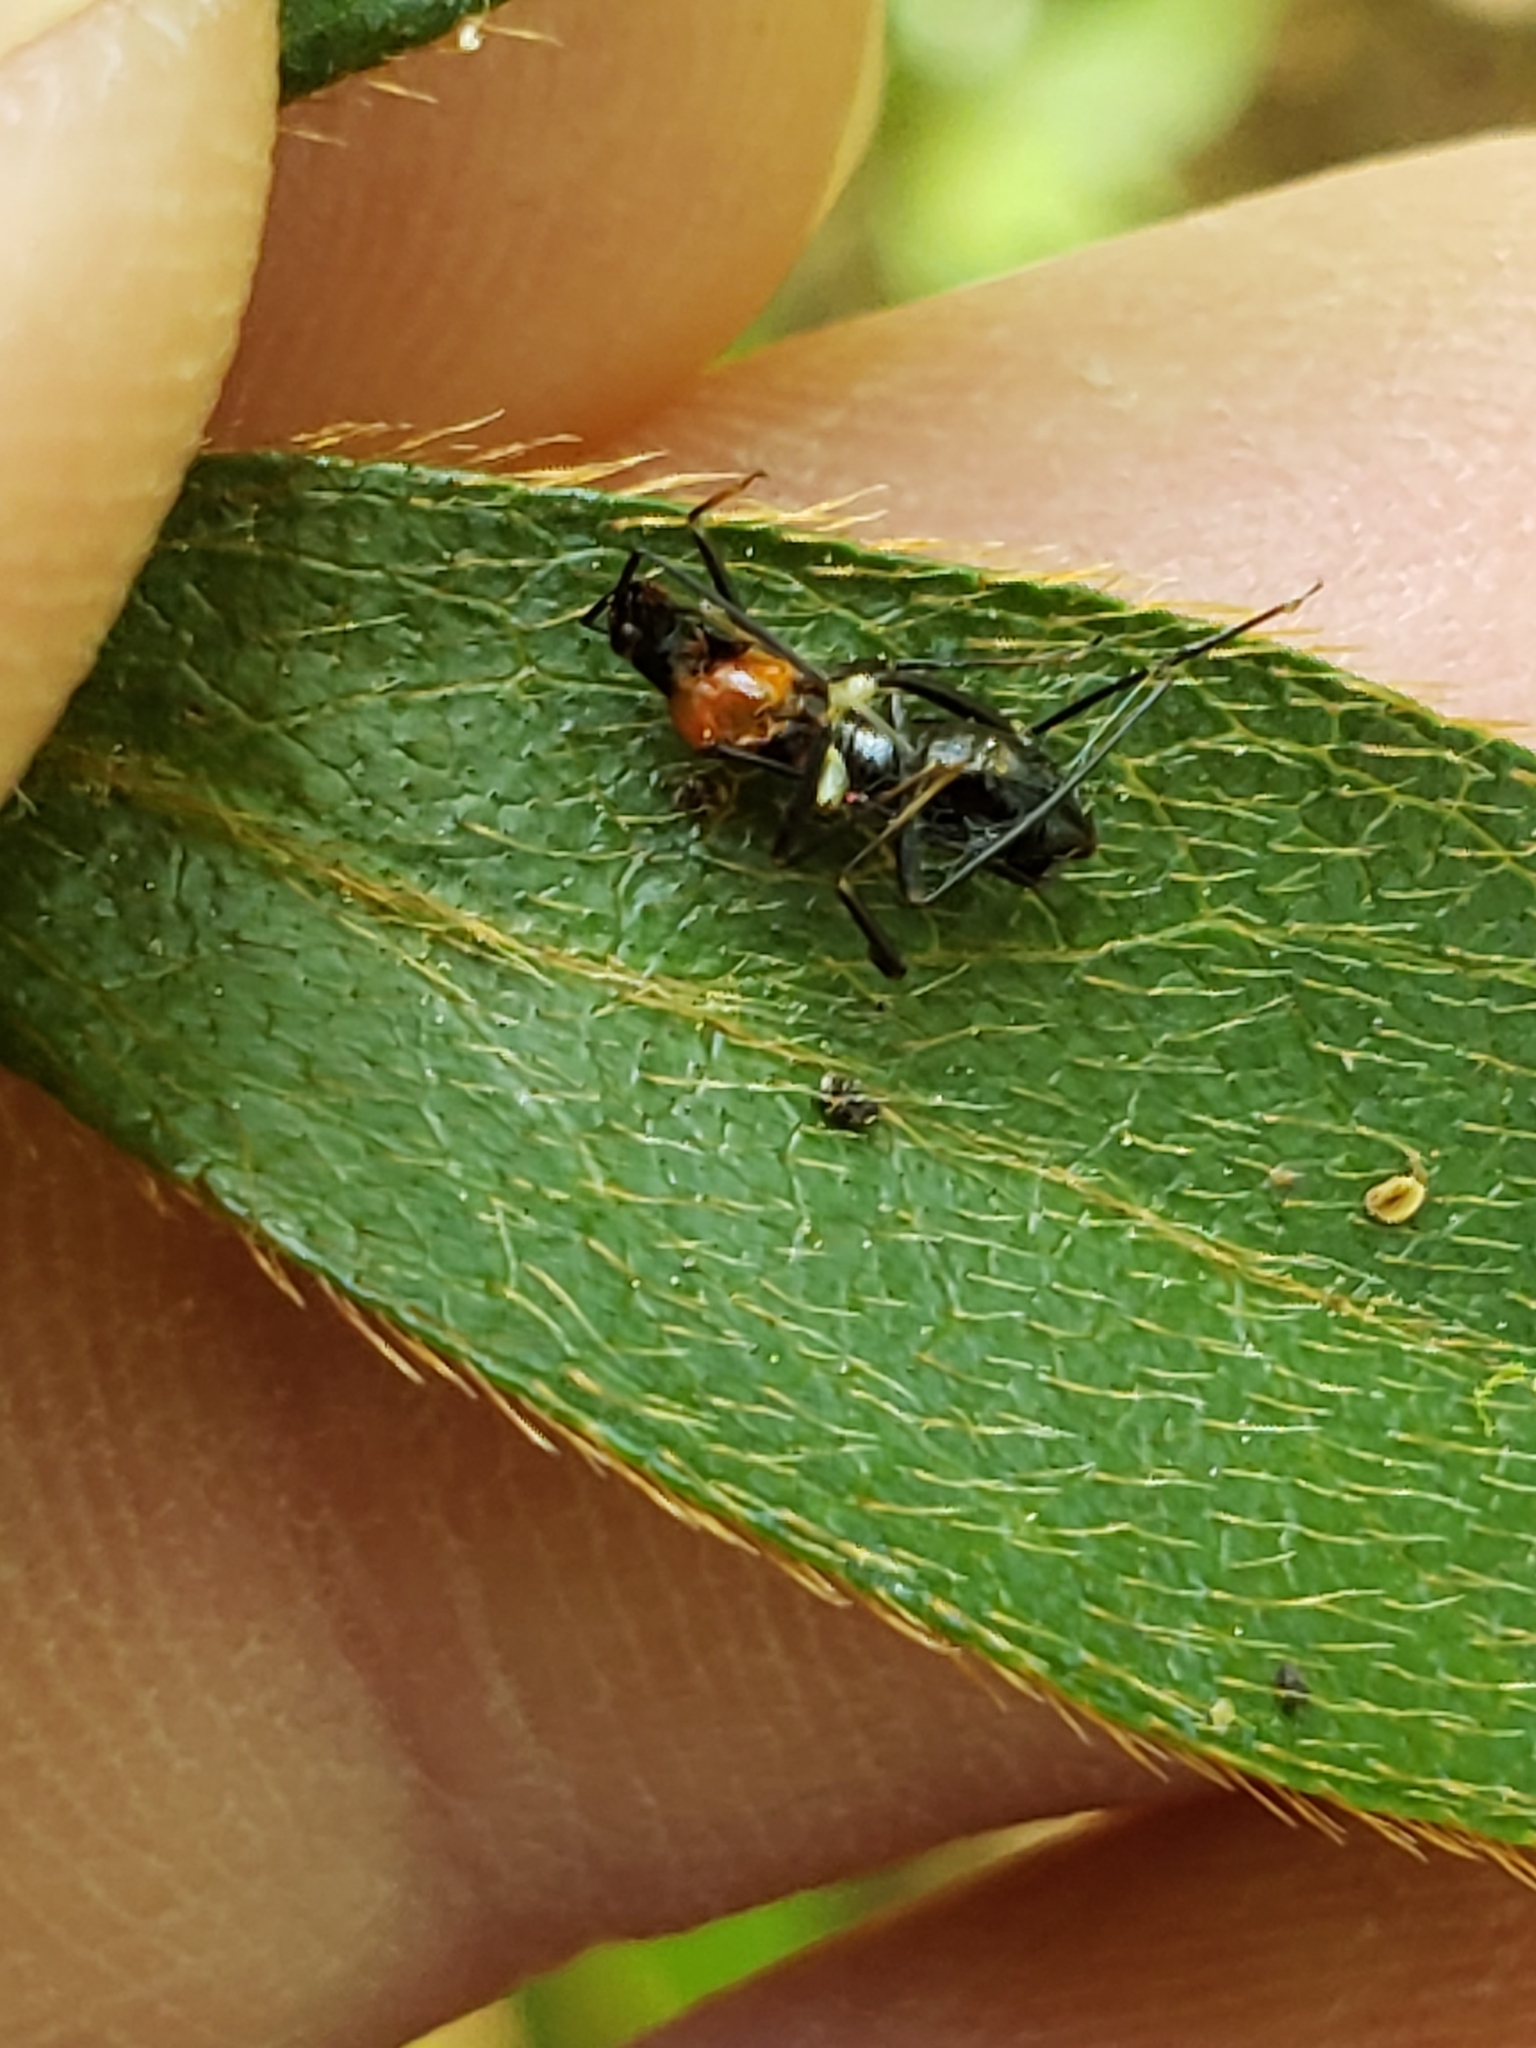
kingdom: Animalia
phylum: Arthropoda
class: Insecta
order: Hemiptera
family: Miridae
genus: Pseudoxenetus
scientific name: Pseudoxenetus regalis
